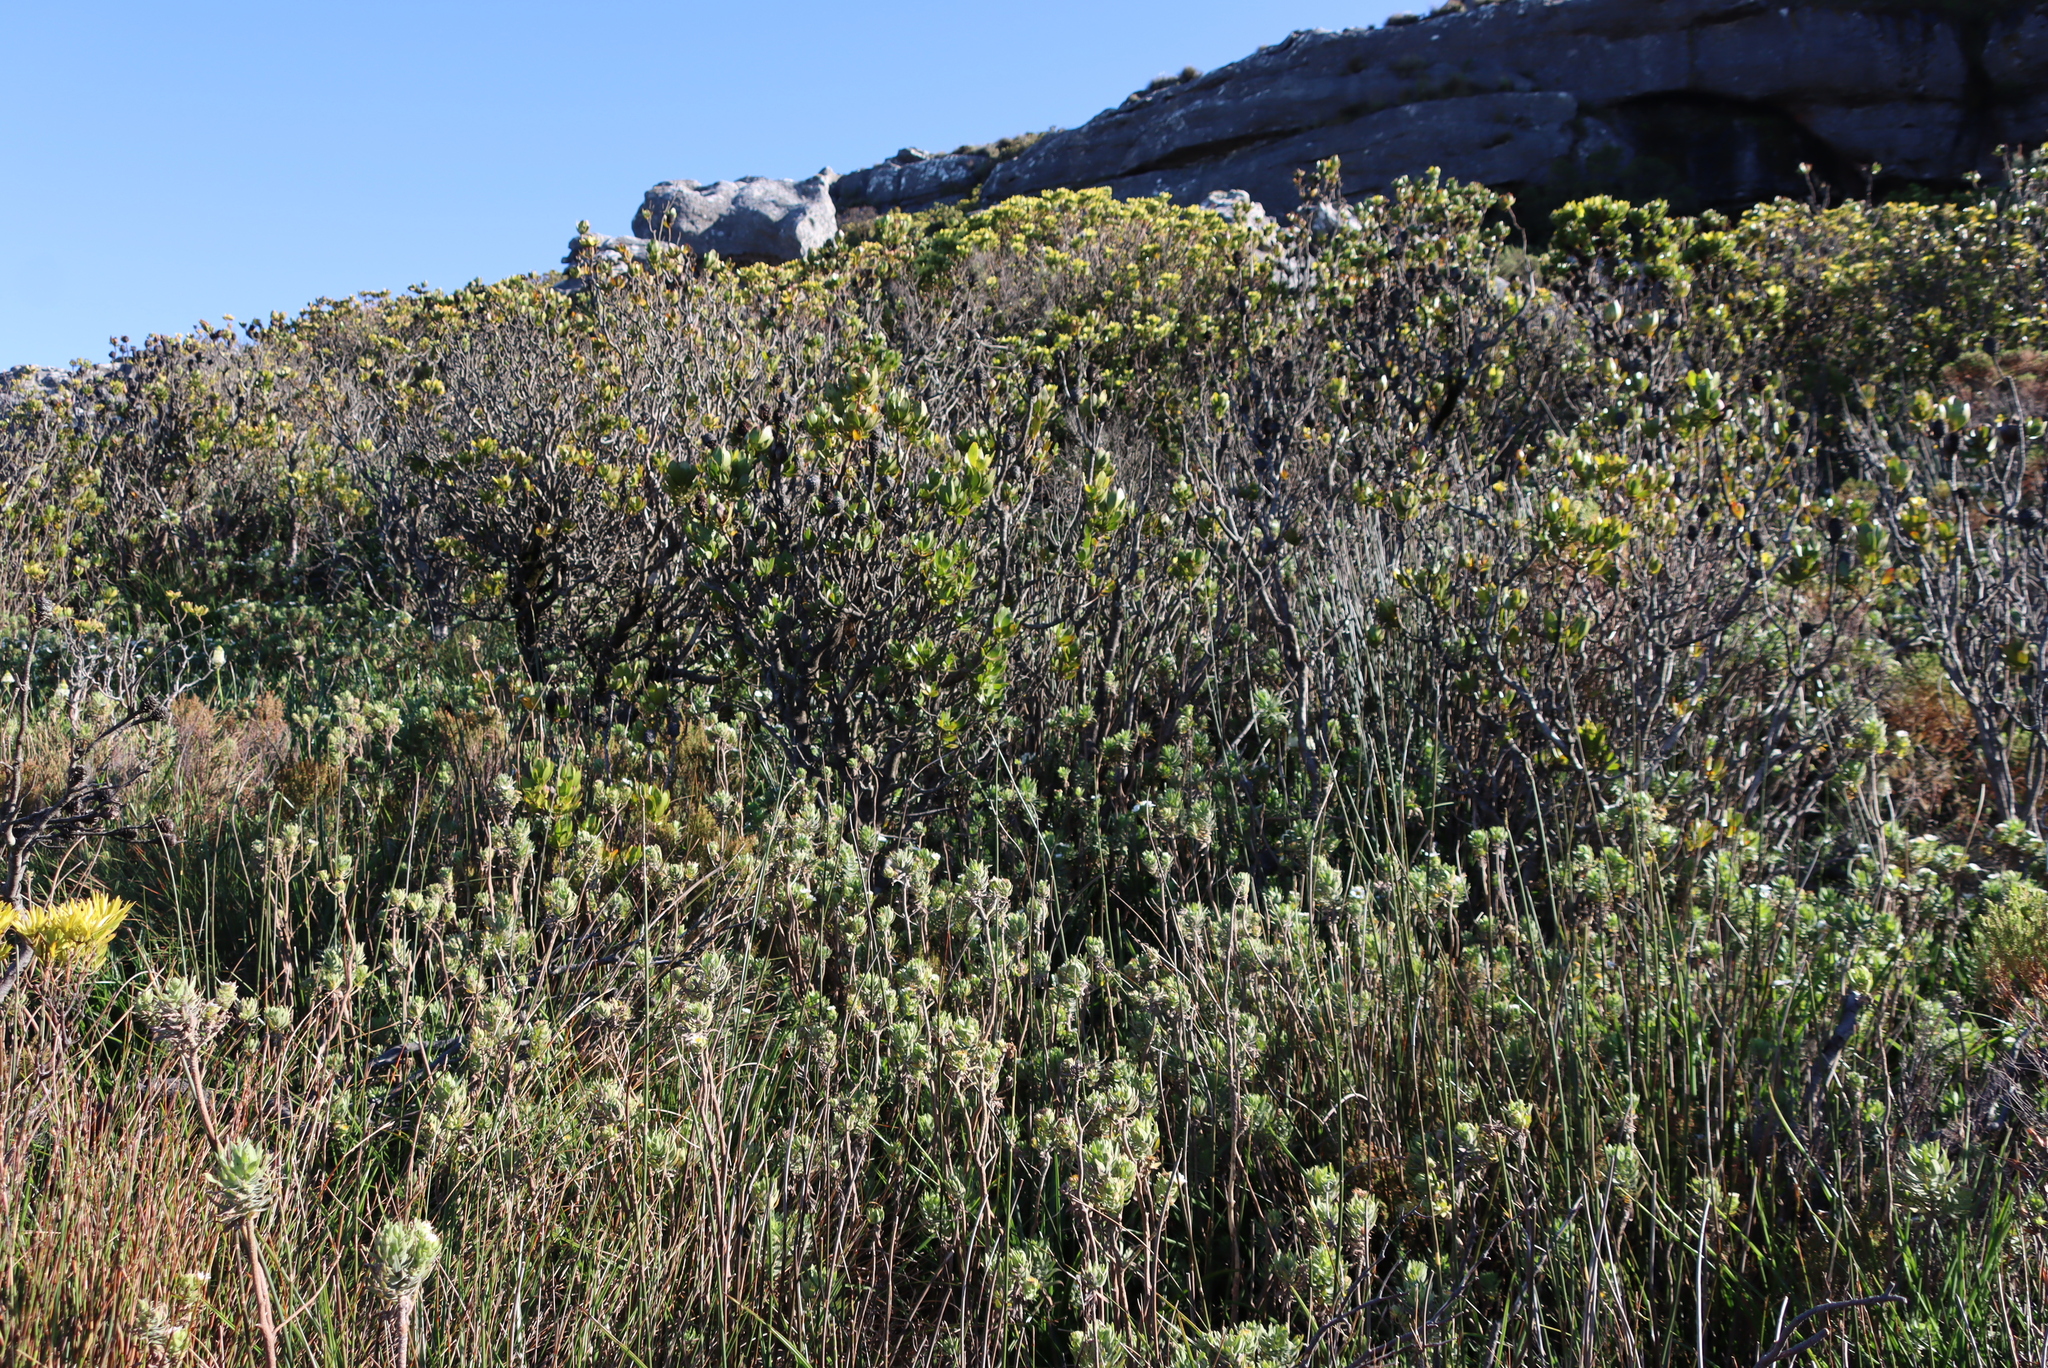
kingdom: Plantae
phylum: Tracheophyta
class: Magnoliopsida
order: Proteales
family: Proteaceae
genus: Leucadendron
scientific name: Leucadendron strobilinum
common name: Mountain rose
